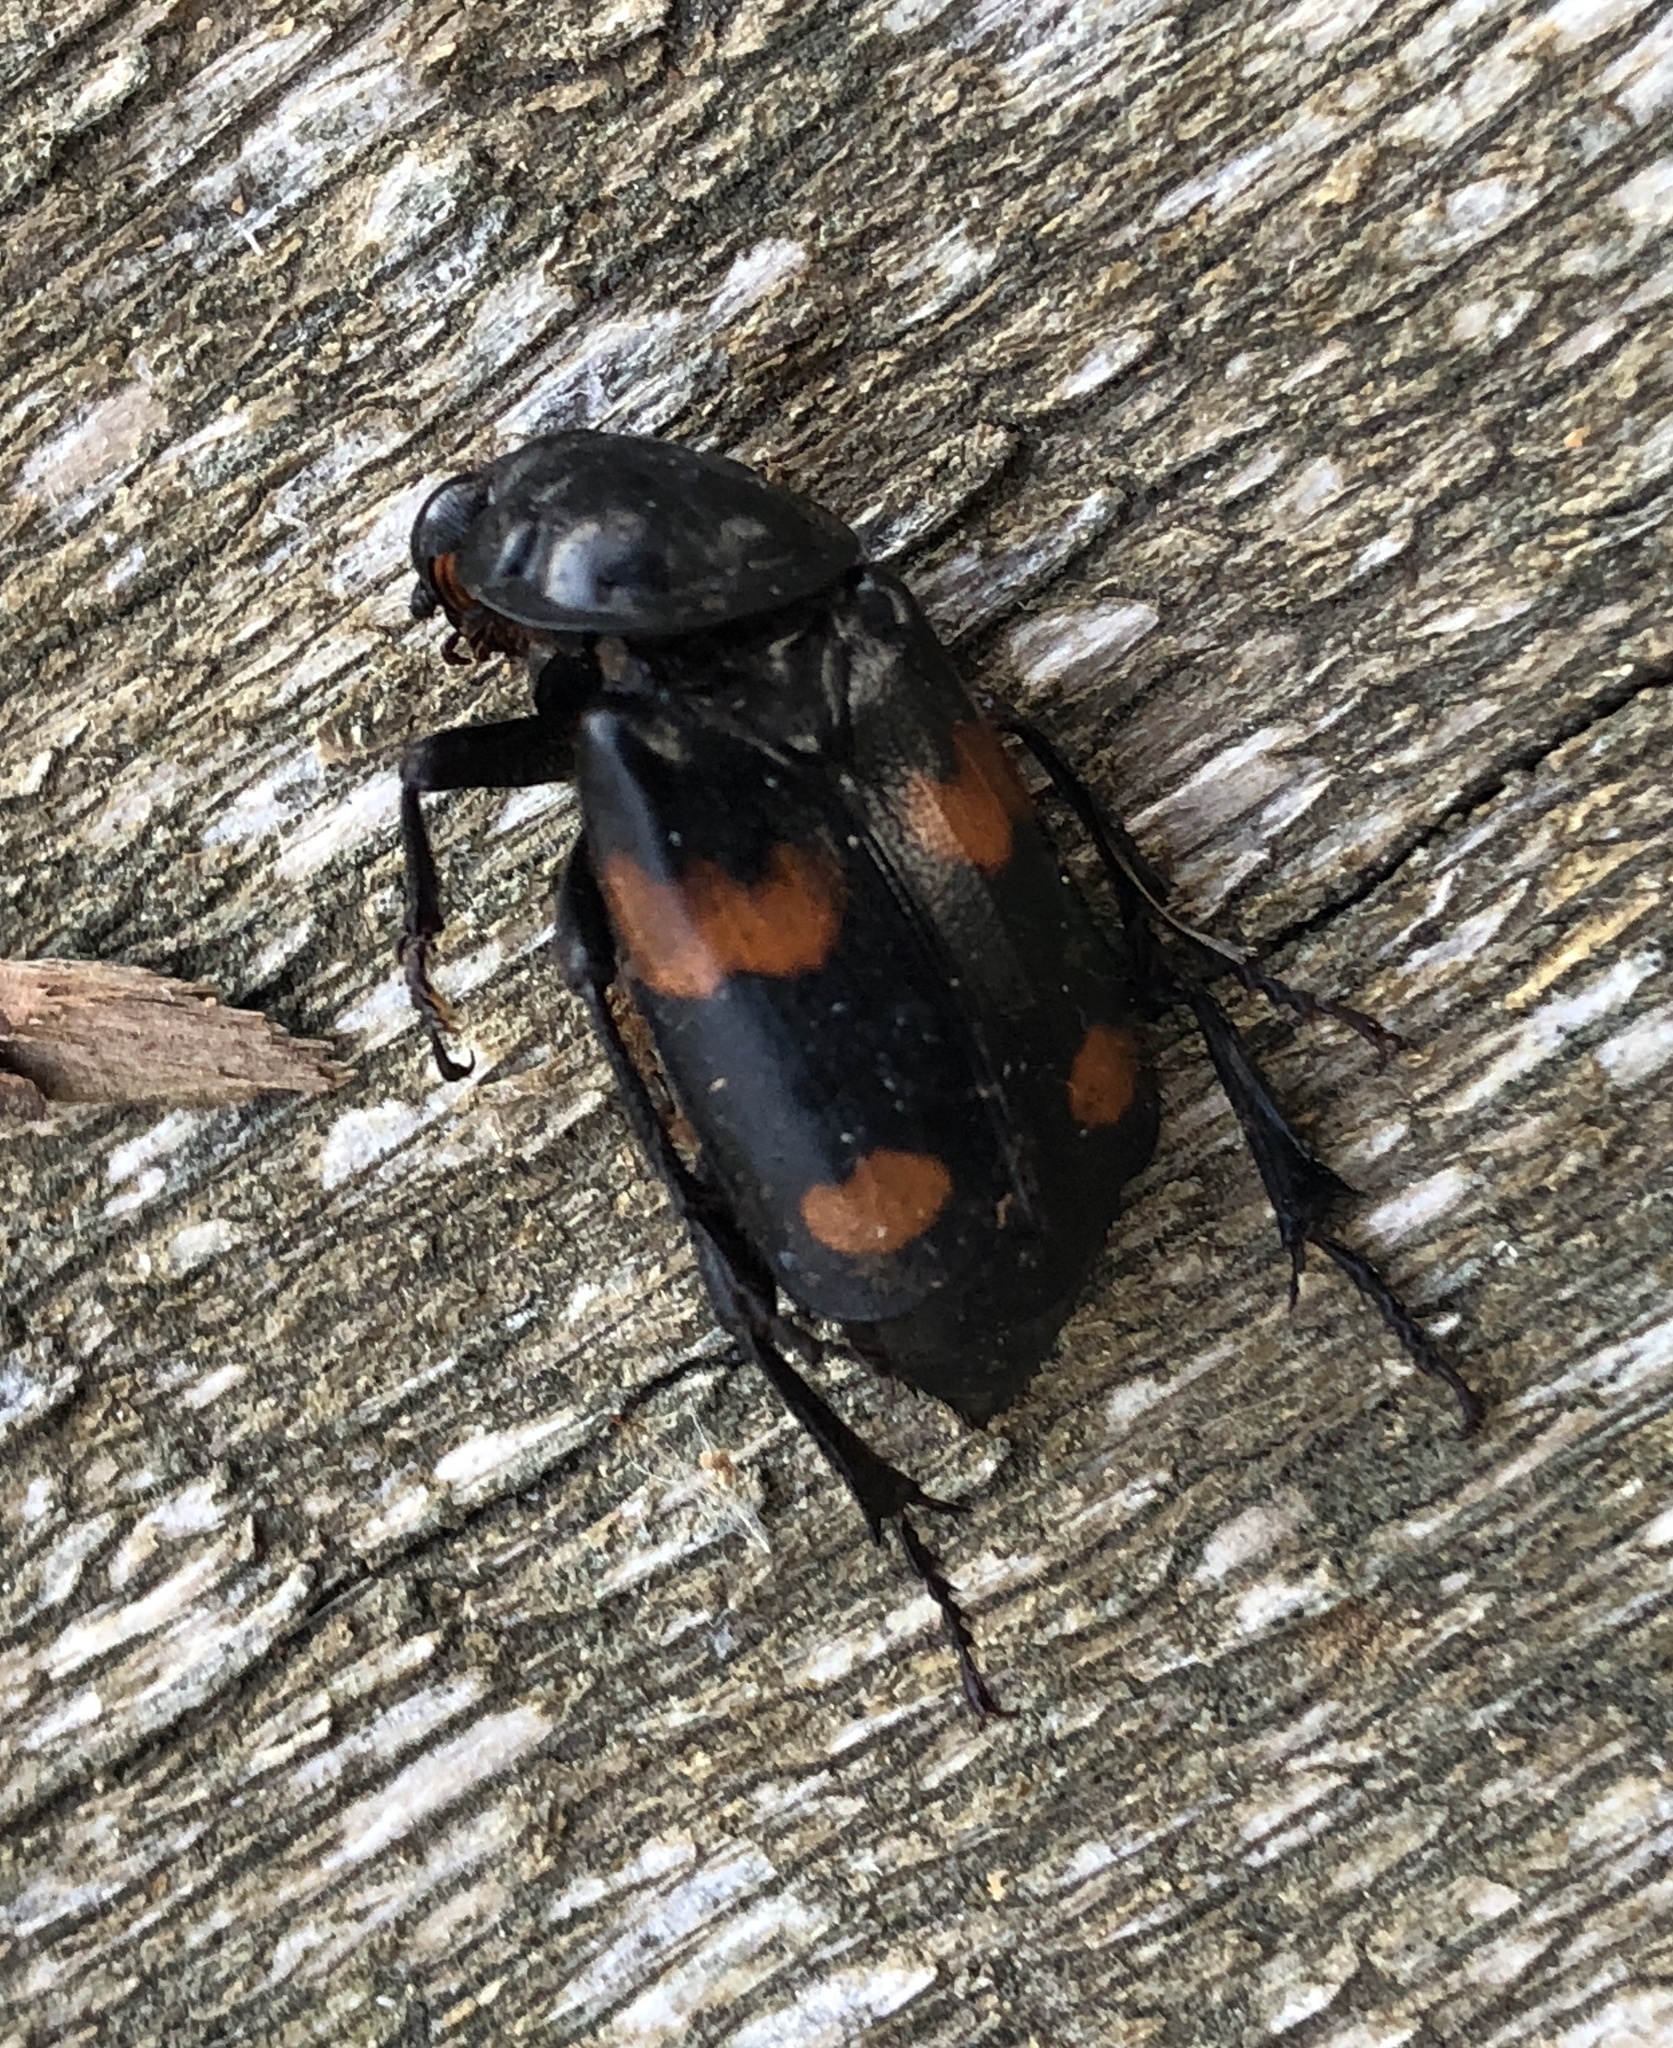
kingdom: Animalia
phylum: Arthropoda
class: Insecta
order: Coleoptera
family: Staphylinidae
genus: Nicrophorus
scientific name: Nicrophorus orbicollis
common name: Roundneck sexton beetle
